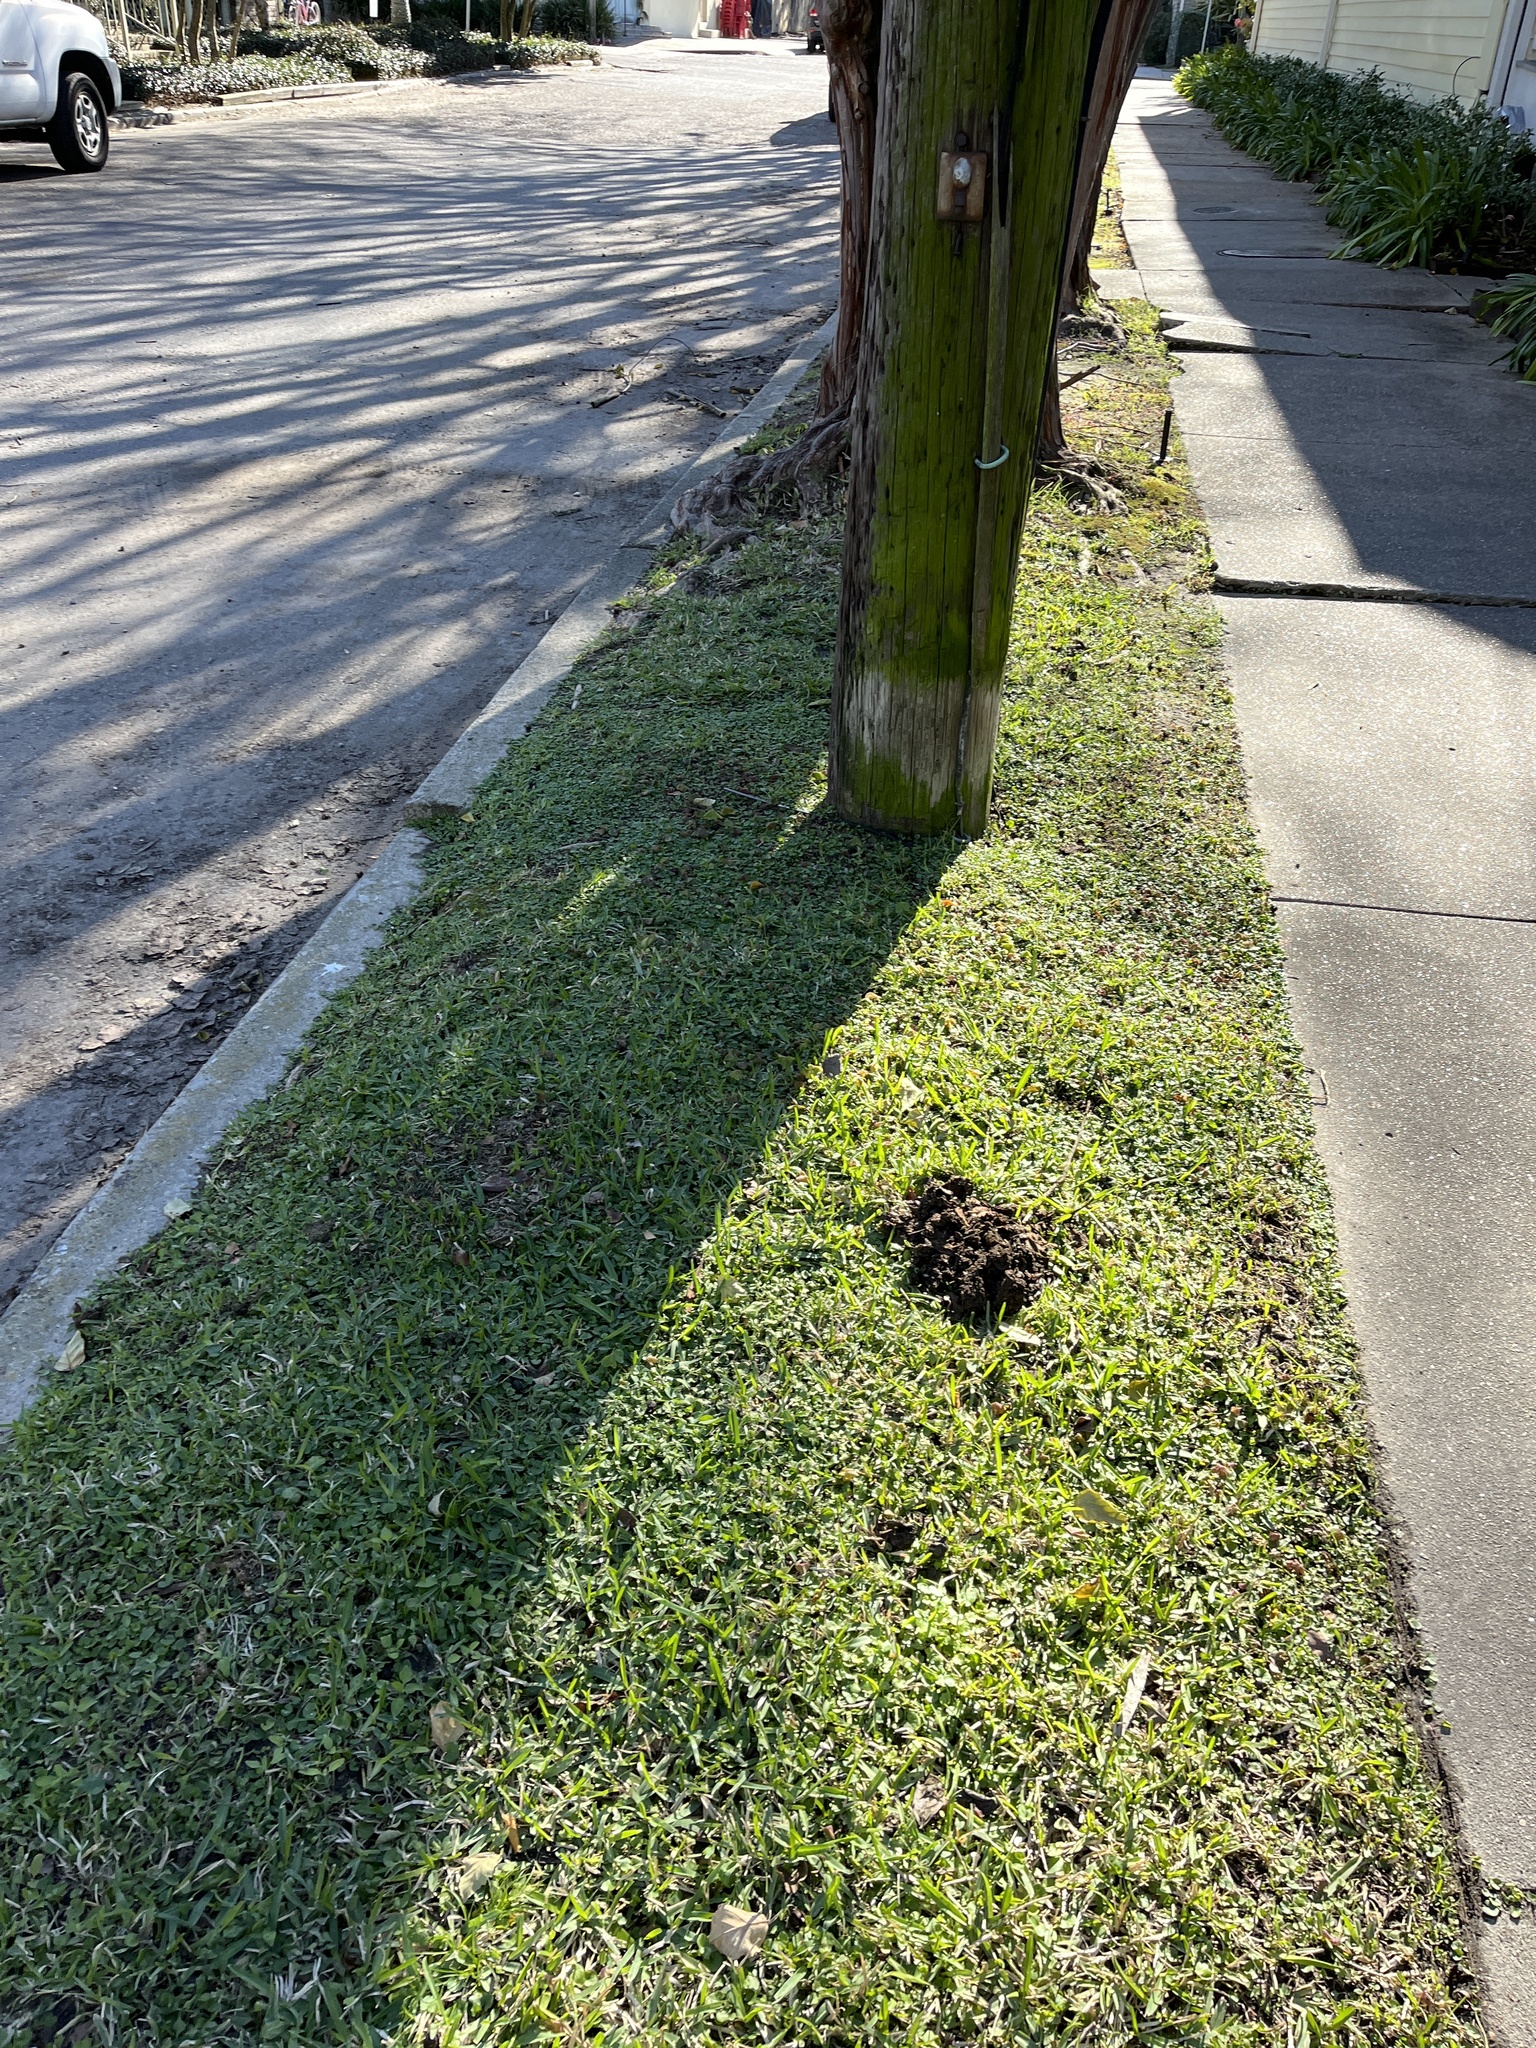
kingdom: Plantae
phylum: Tracheophyta
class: Magnoliopsida
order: Solanales
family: Convolvulaceae
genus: Dichondra
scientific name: Dichondra carolinensis
